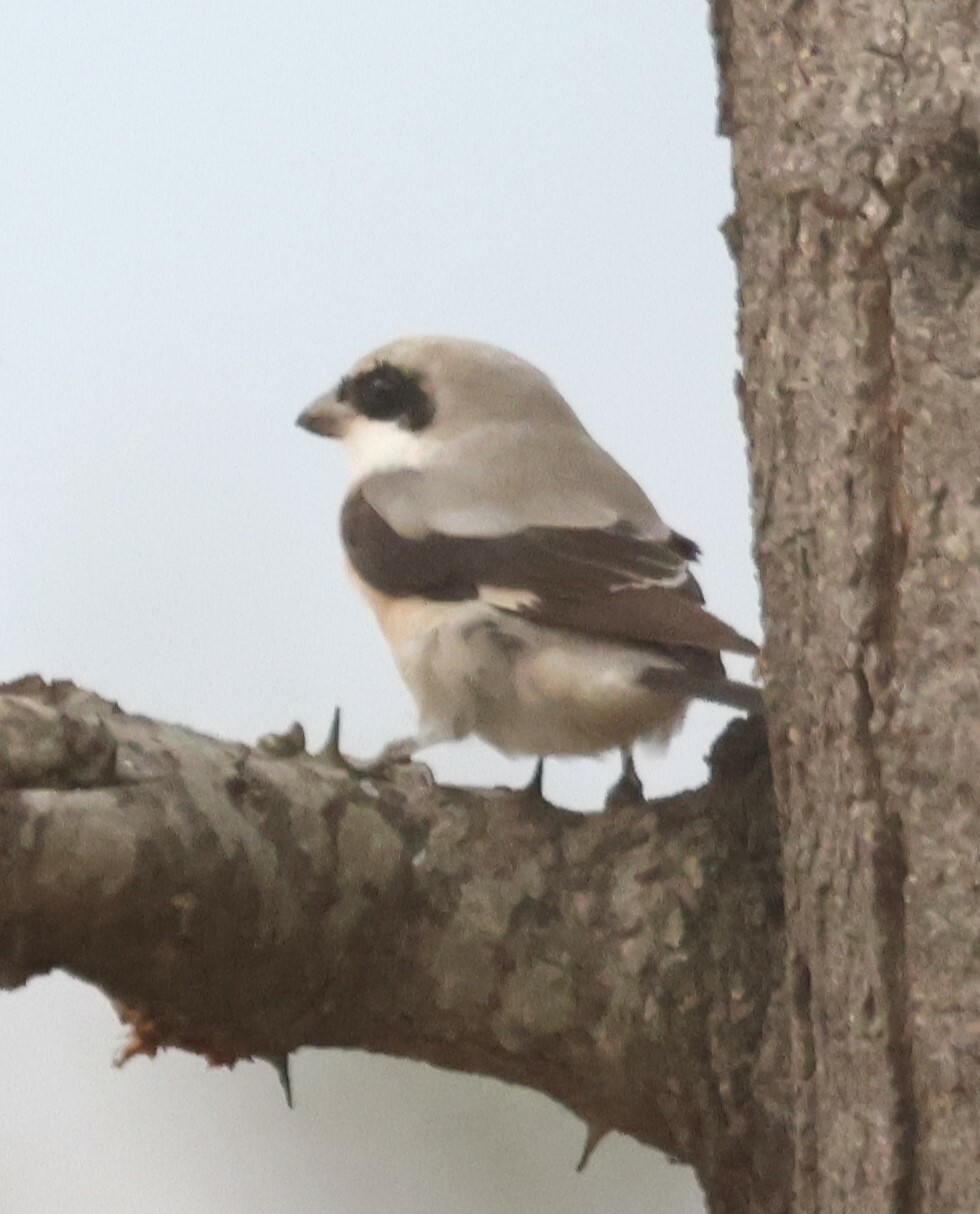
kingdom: Animalia
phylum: Chordata
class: Aves
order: Passeriformes
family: Laniidae
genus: Lanius
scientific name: Lanius minor
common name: Lesser grey shrike
